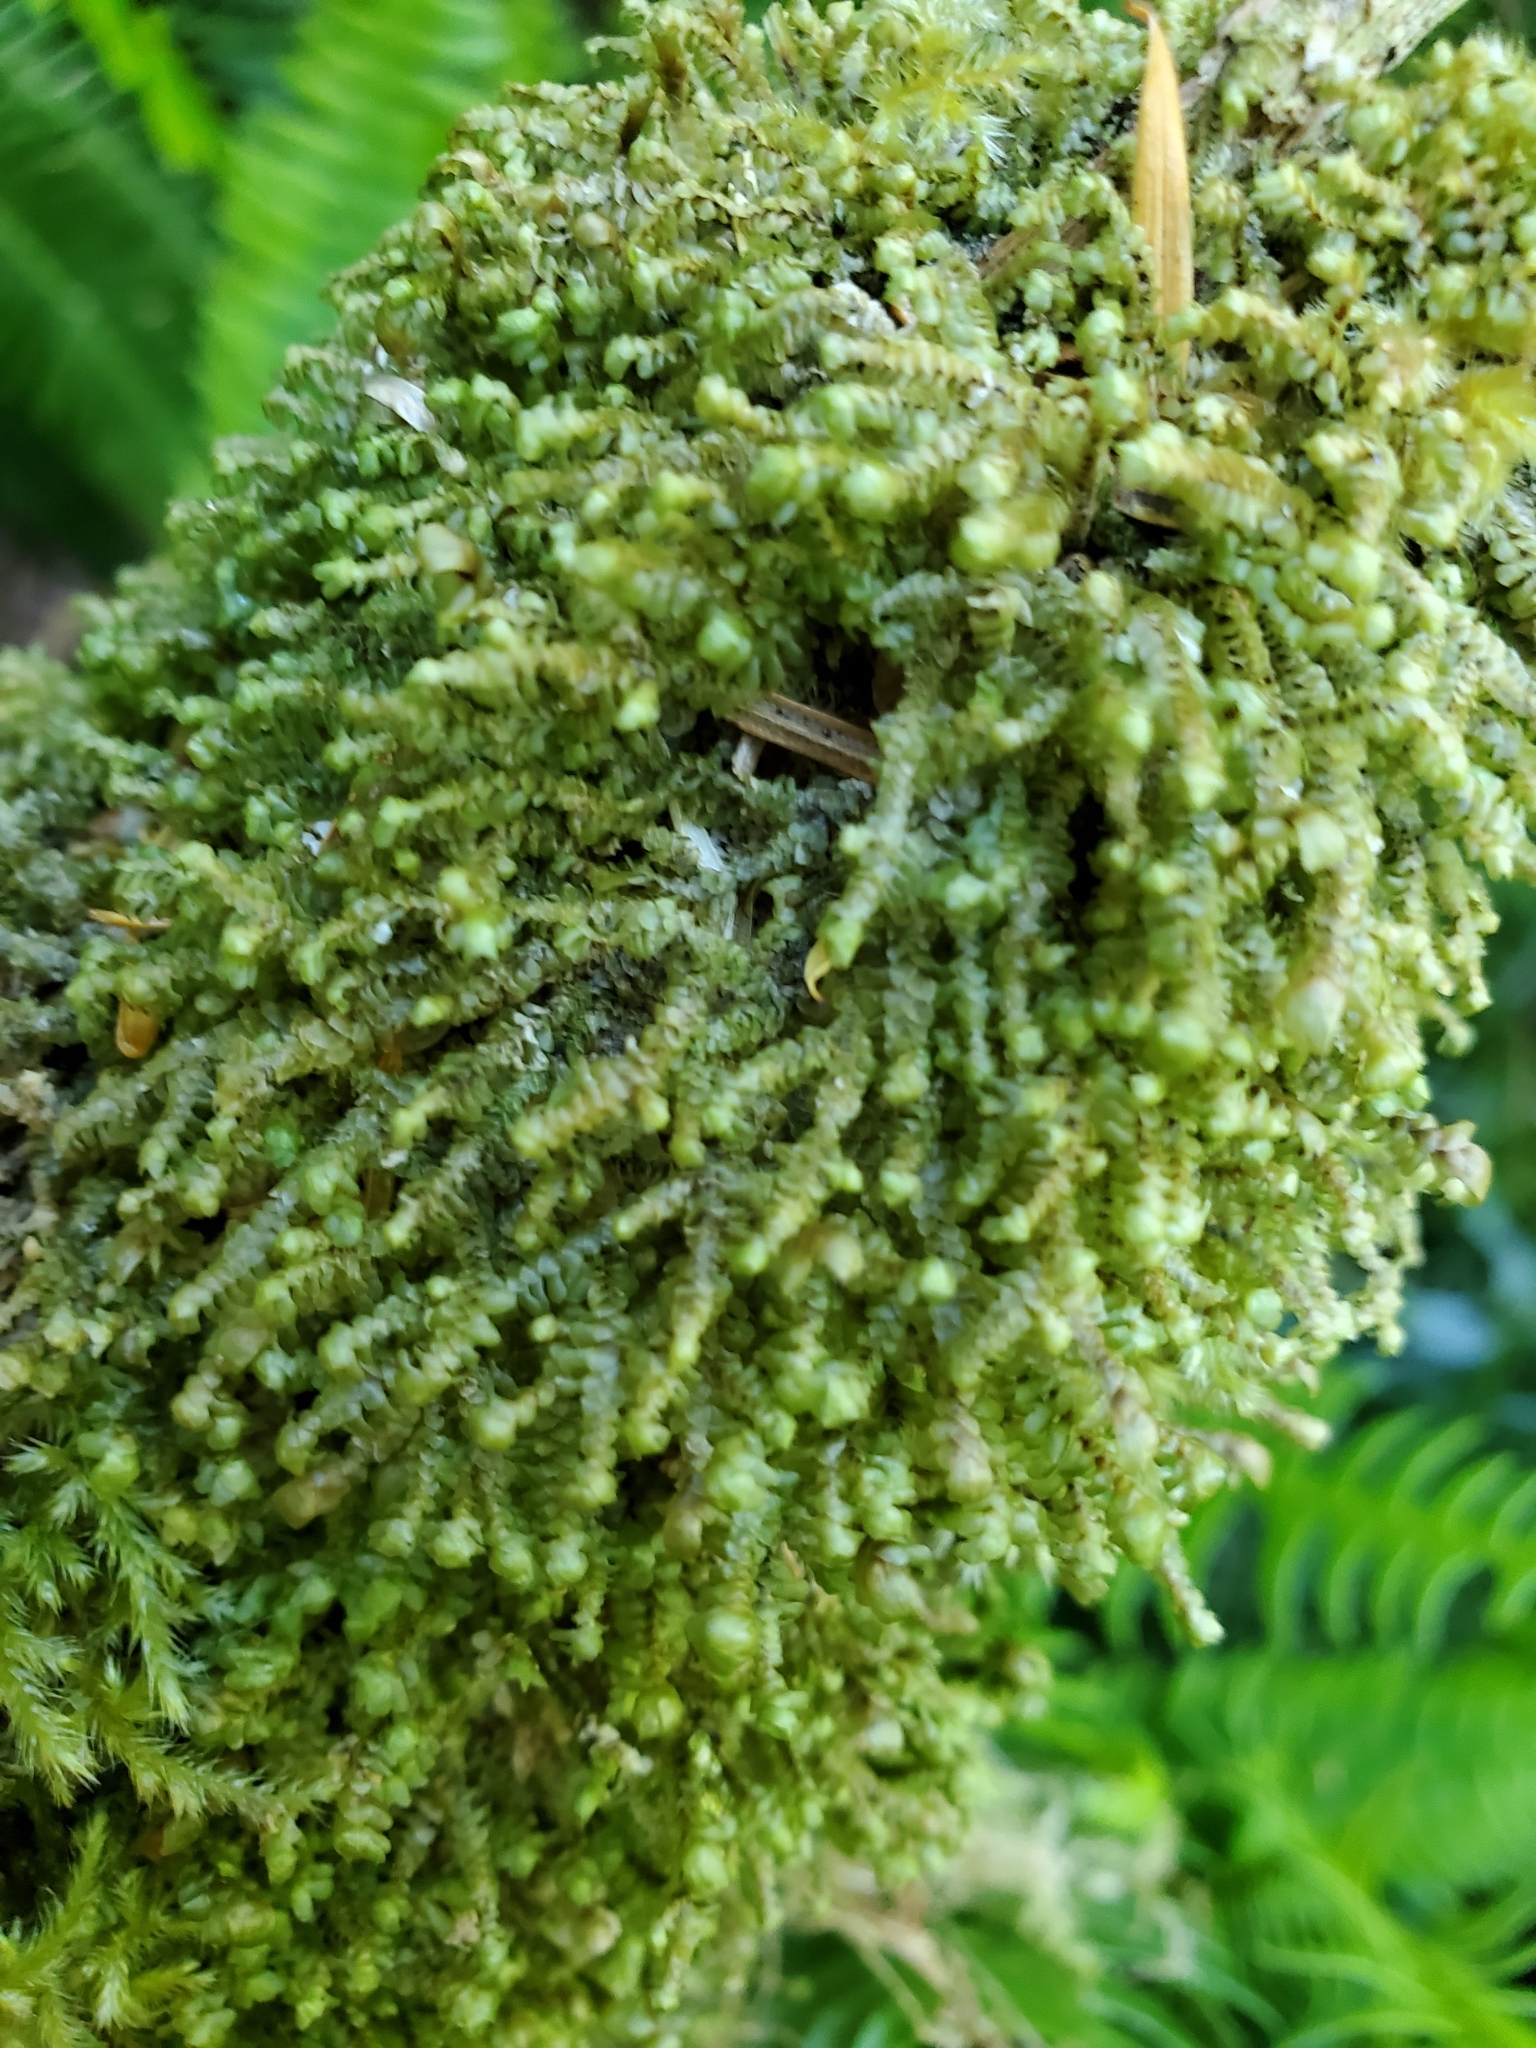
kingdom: Plantae
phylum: Marchantiophyta
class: Jungermanniopsida
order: Jungermanniales
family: Scapaniaceae
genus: Scapania
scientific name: Scapania bolanderi
